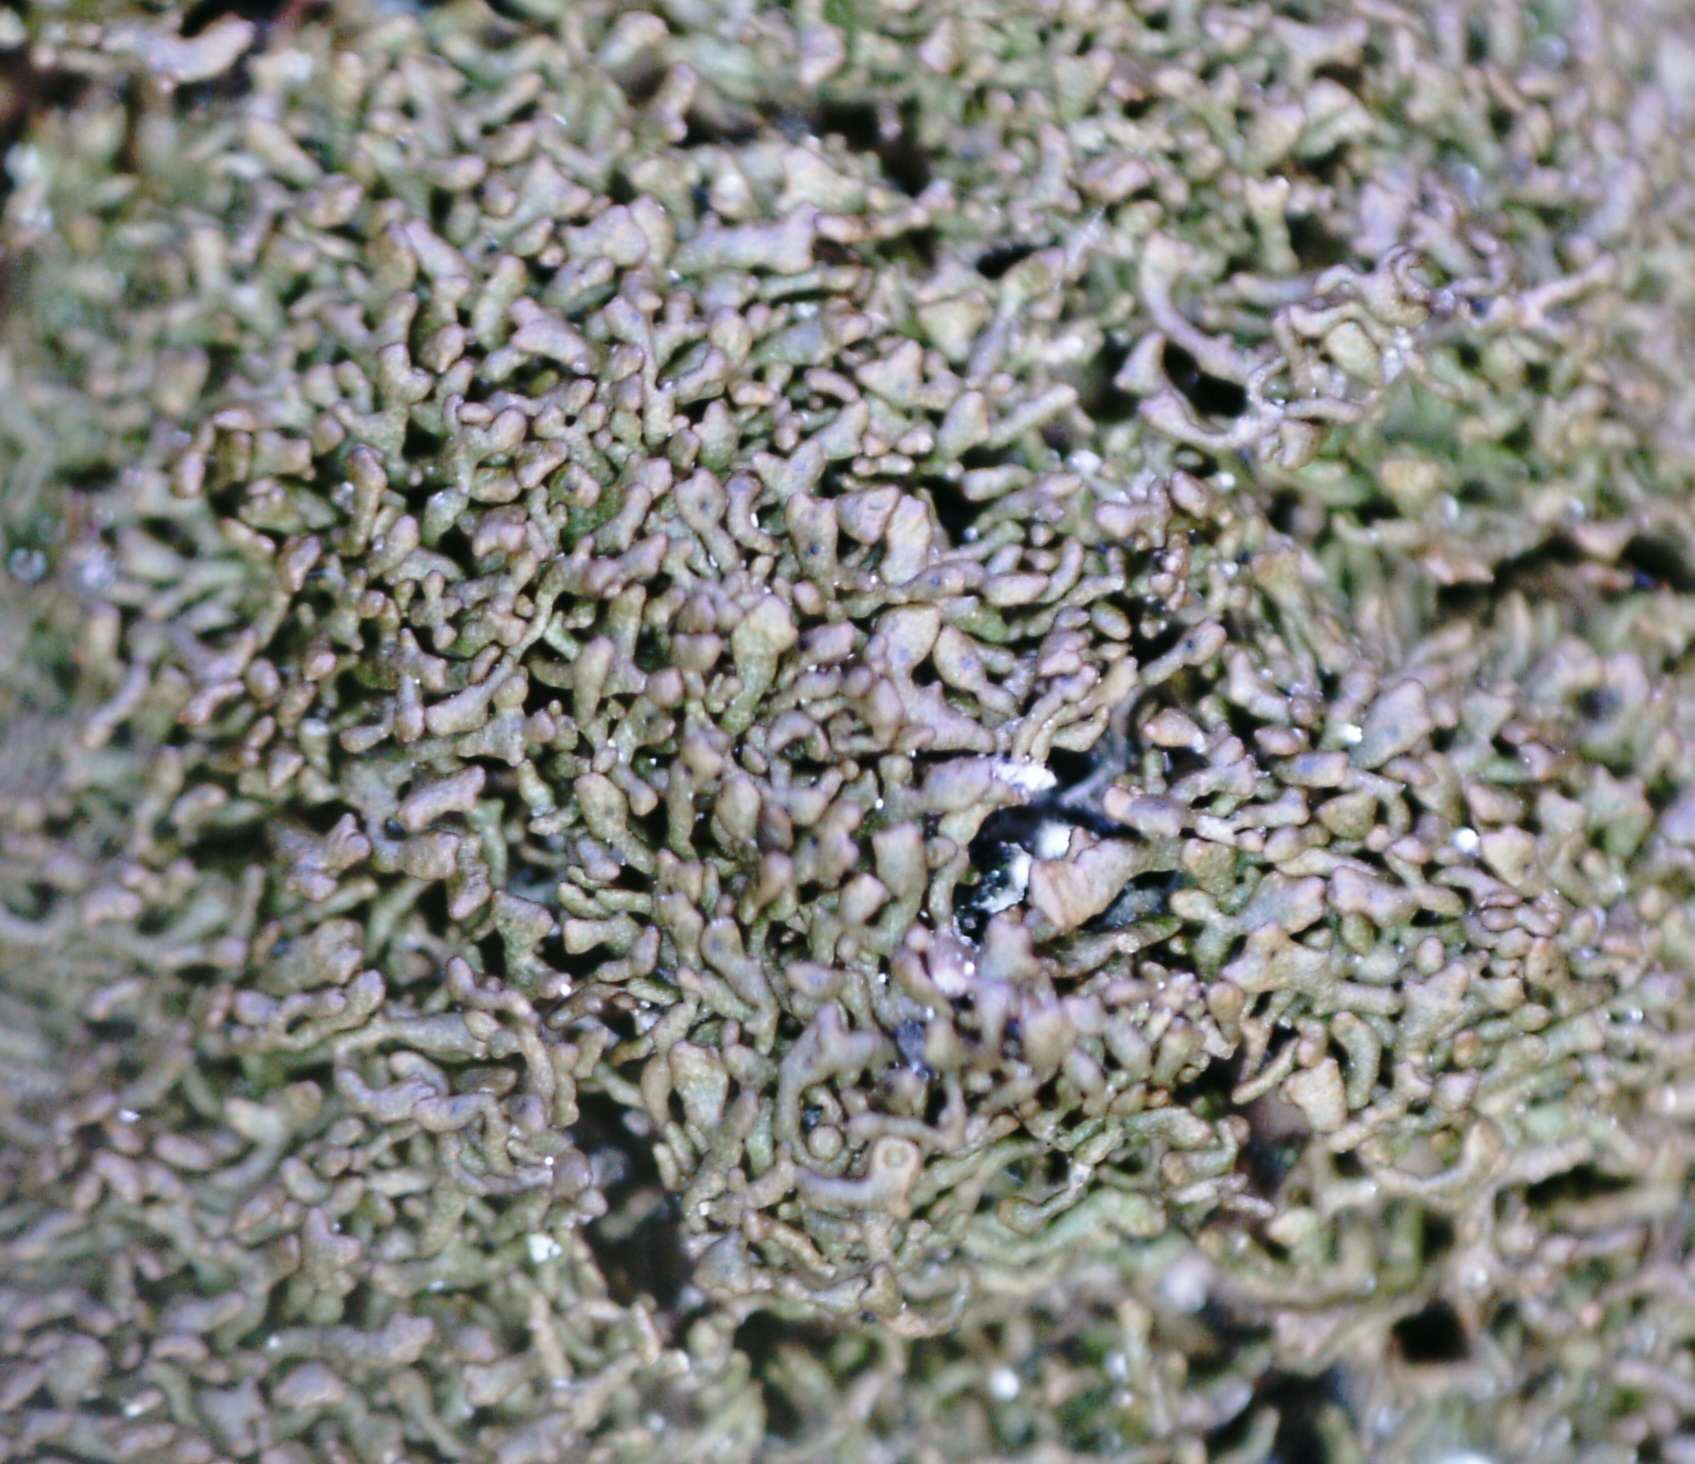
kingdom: Fungi
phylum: Ascomycota
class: Lecanoromycetes
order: Lecanorales
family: Parmeliaceae
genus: Montanelia
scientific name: Montanelia panniformis
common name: Shingled camouflage lichen
